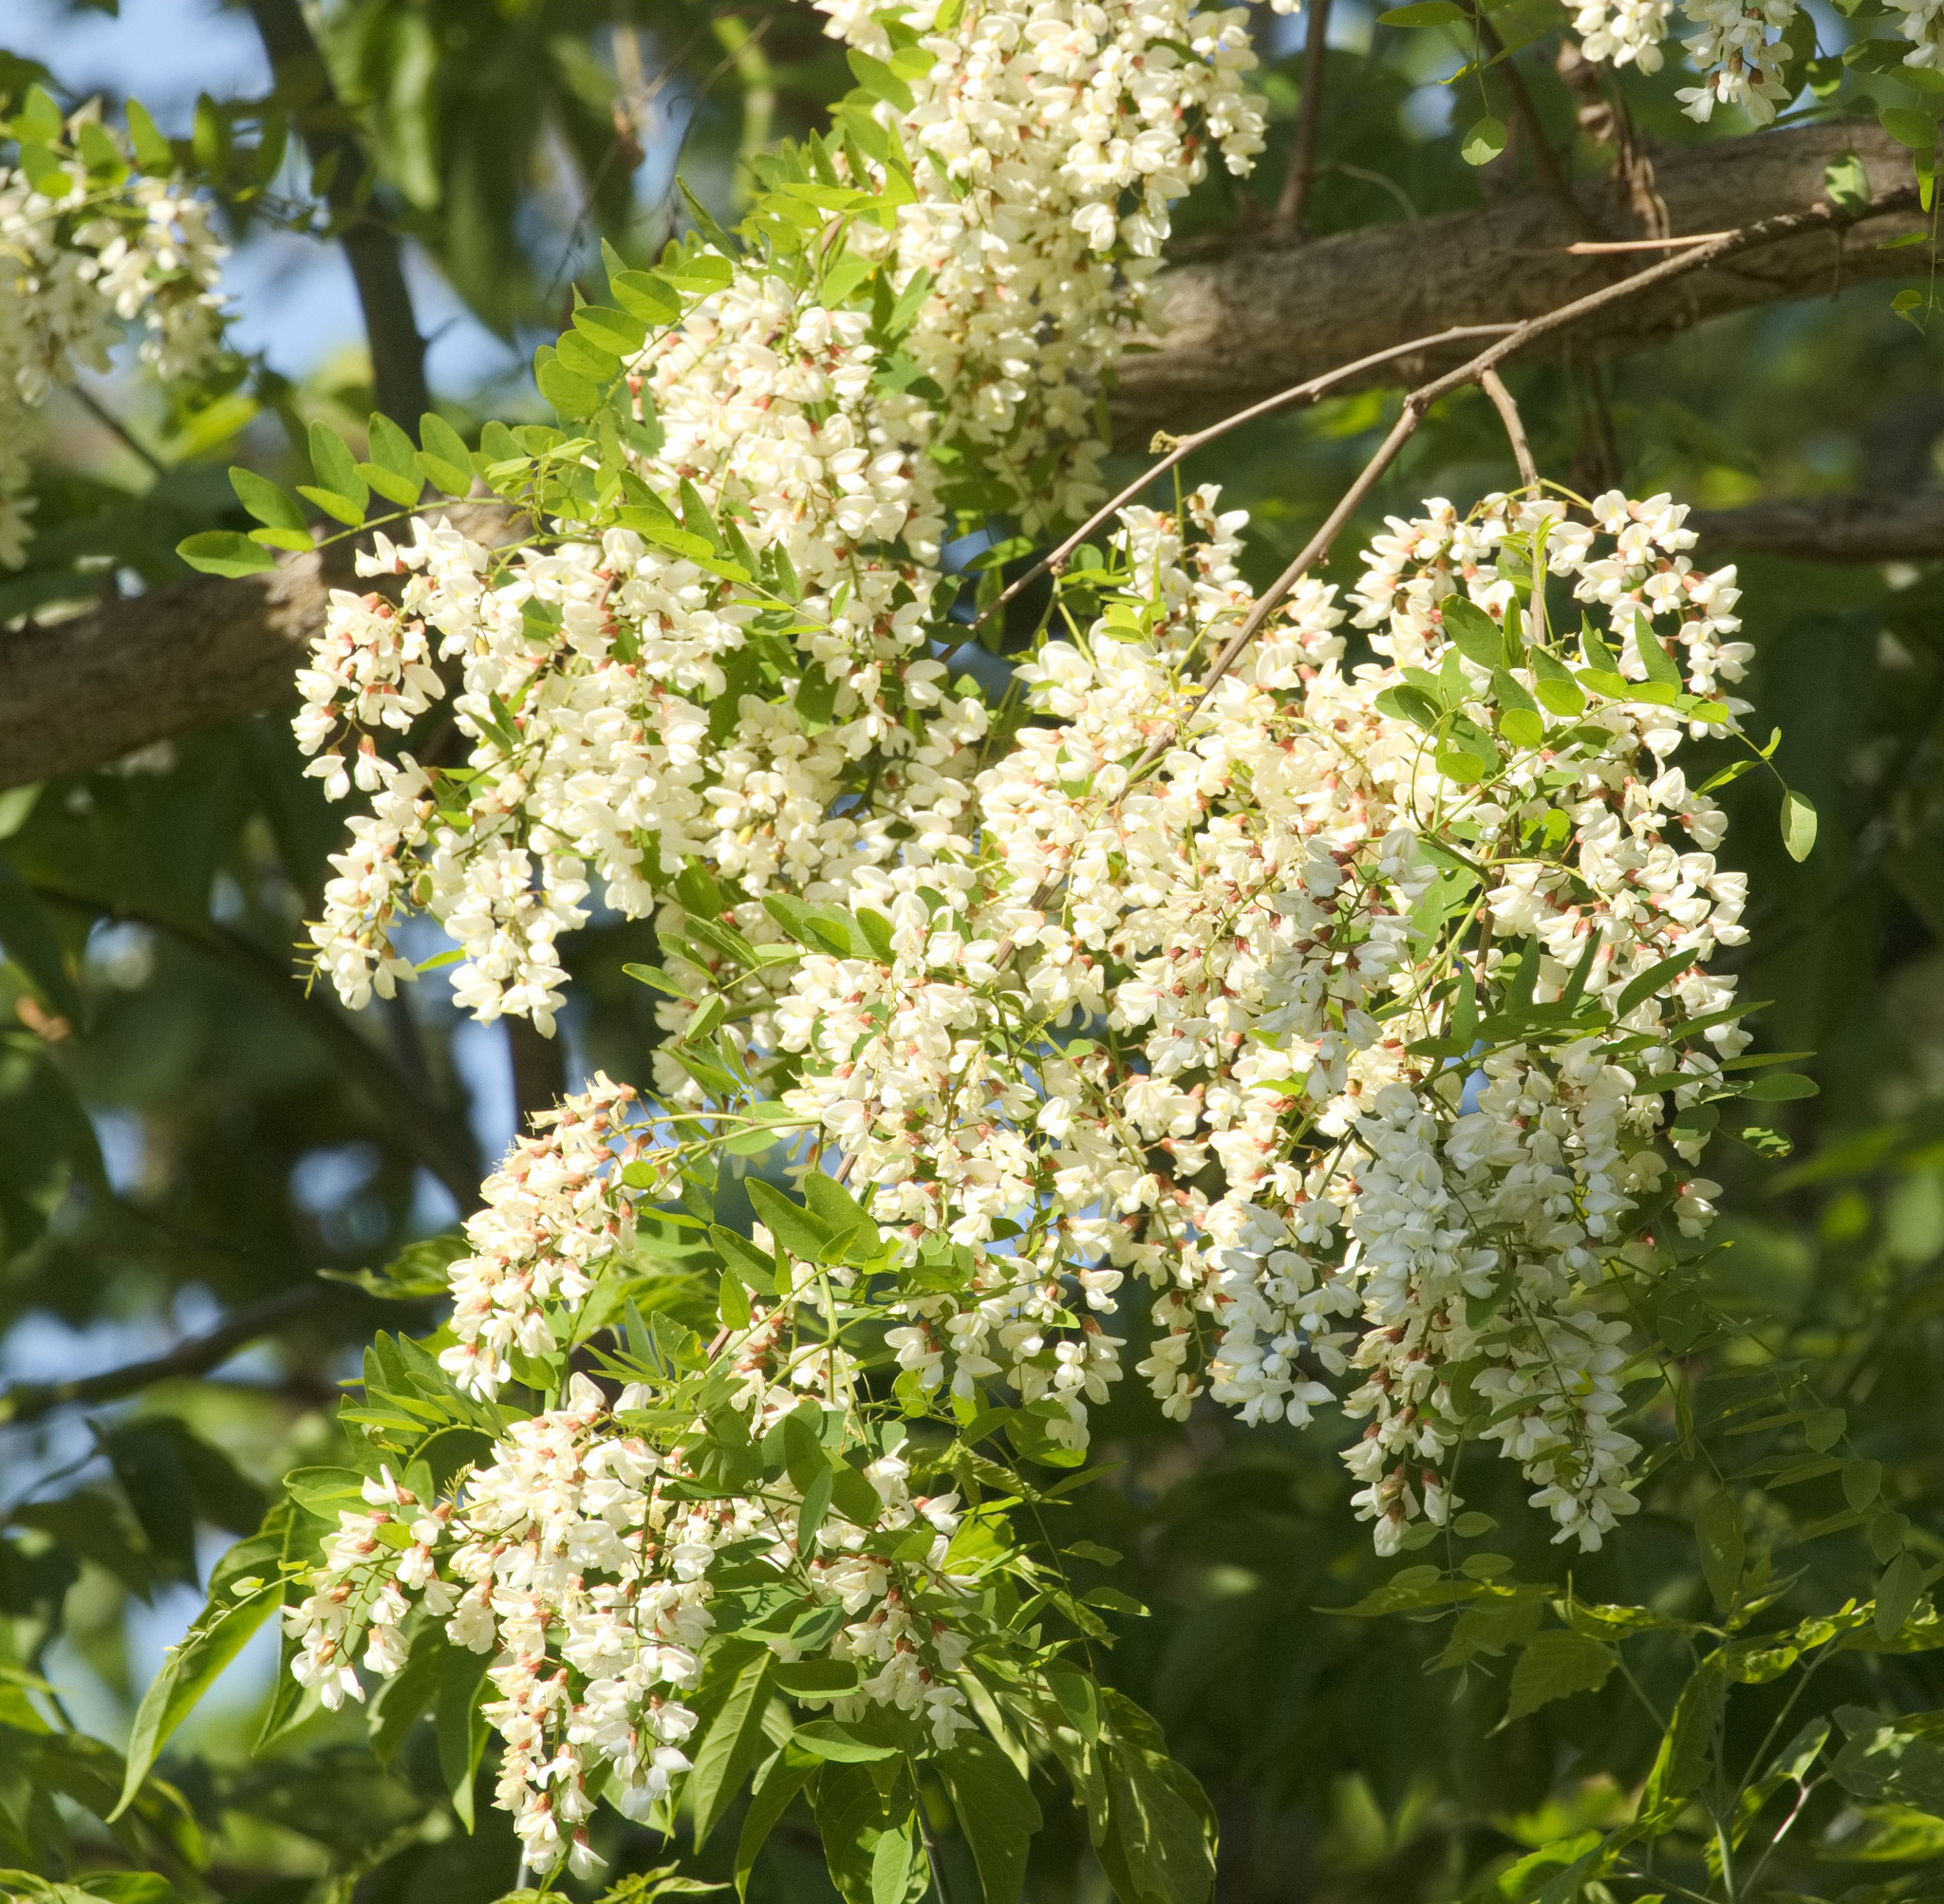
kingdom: Plantae
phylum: Tracheophyta
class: Magnoliopsida
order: Fabales
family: Fabaceae
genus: Robinia
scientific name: Robinia pseudoacacia
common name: Black locust
